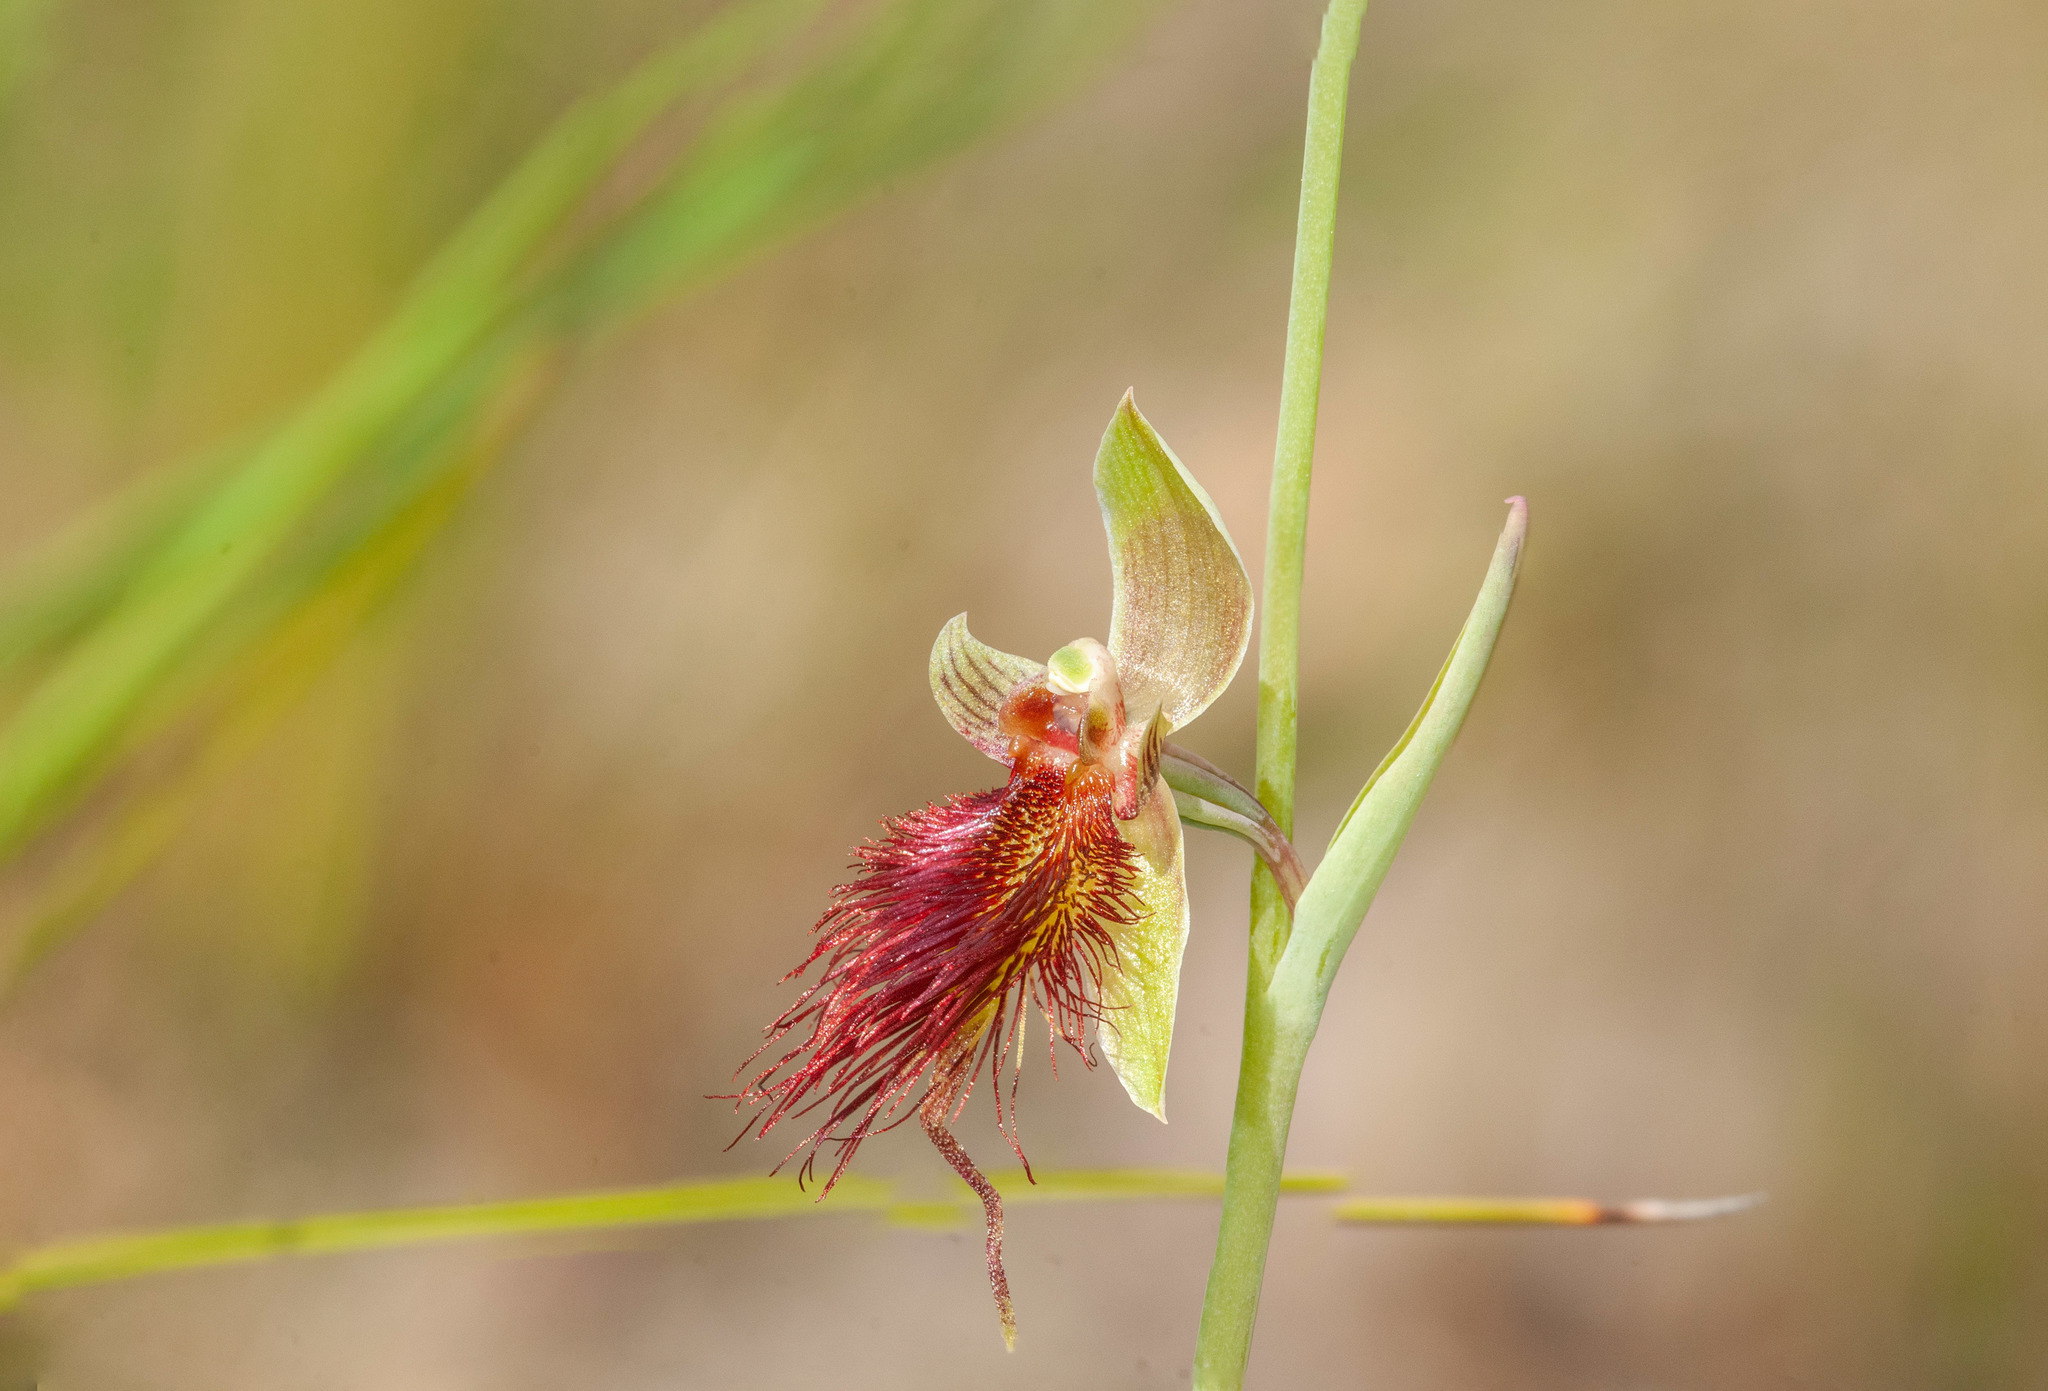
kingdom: Plantae
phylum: Tracheophyta
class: Liliopsida
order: Asparagales
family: Orchidaceae
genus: Calochilus
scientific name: Calochilus paludosus
